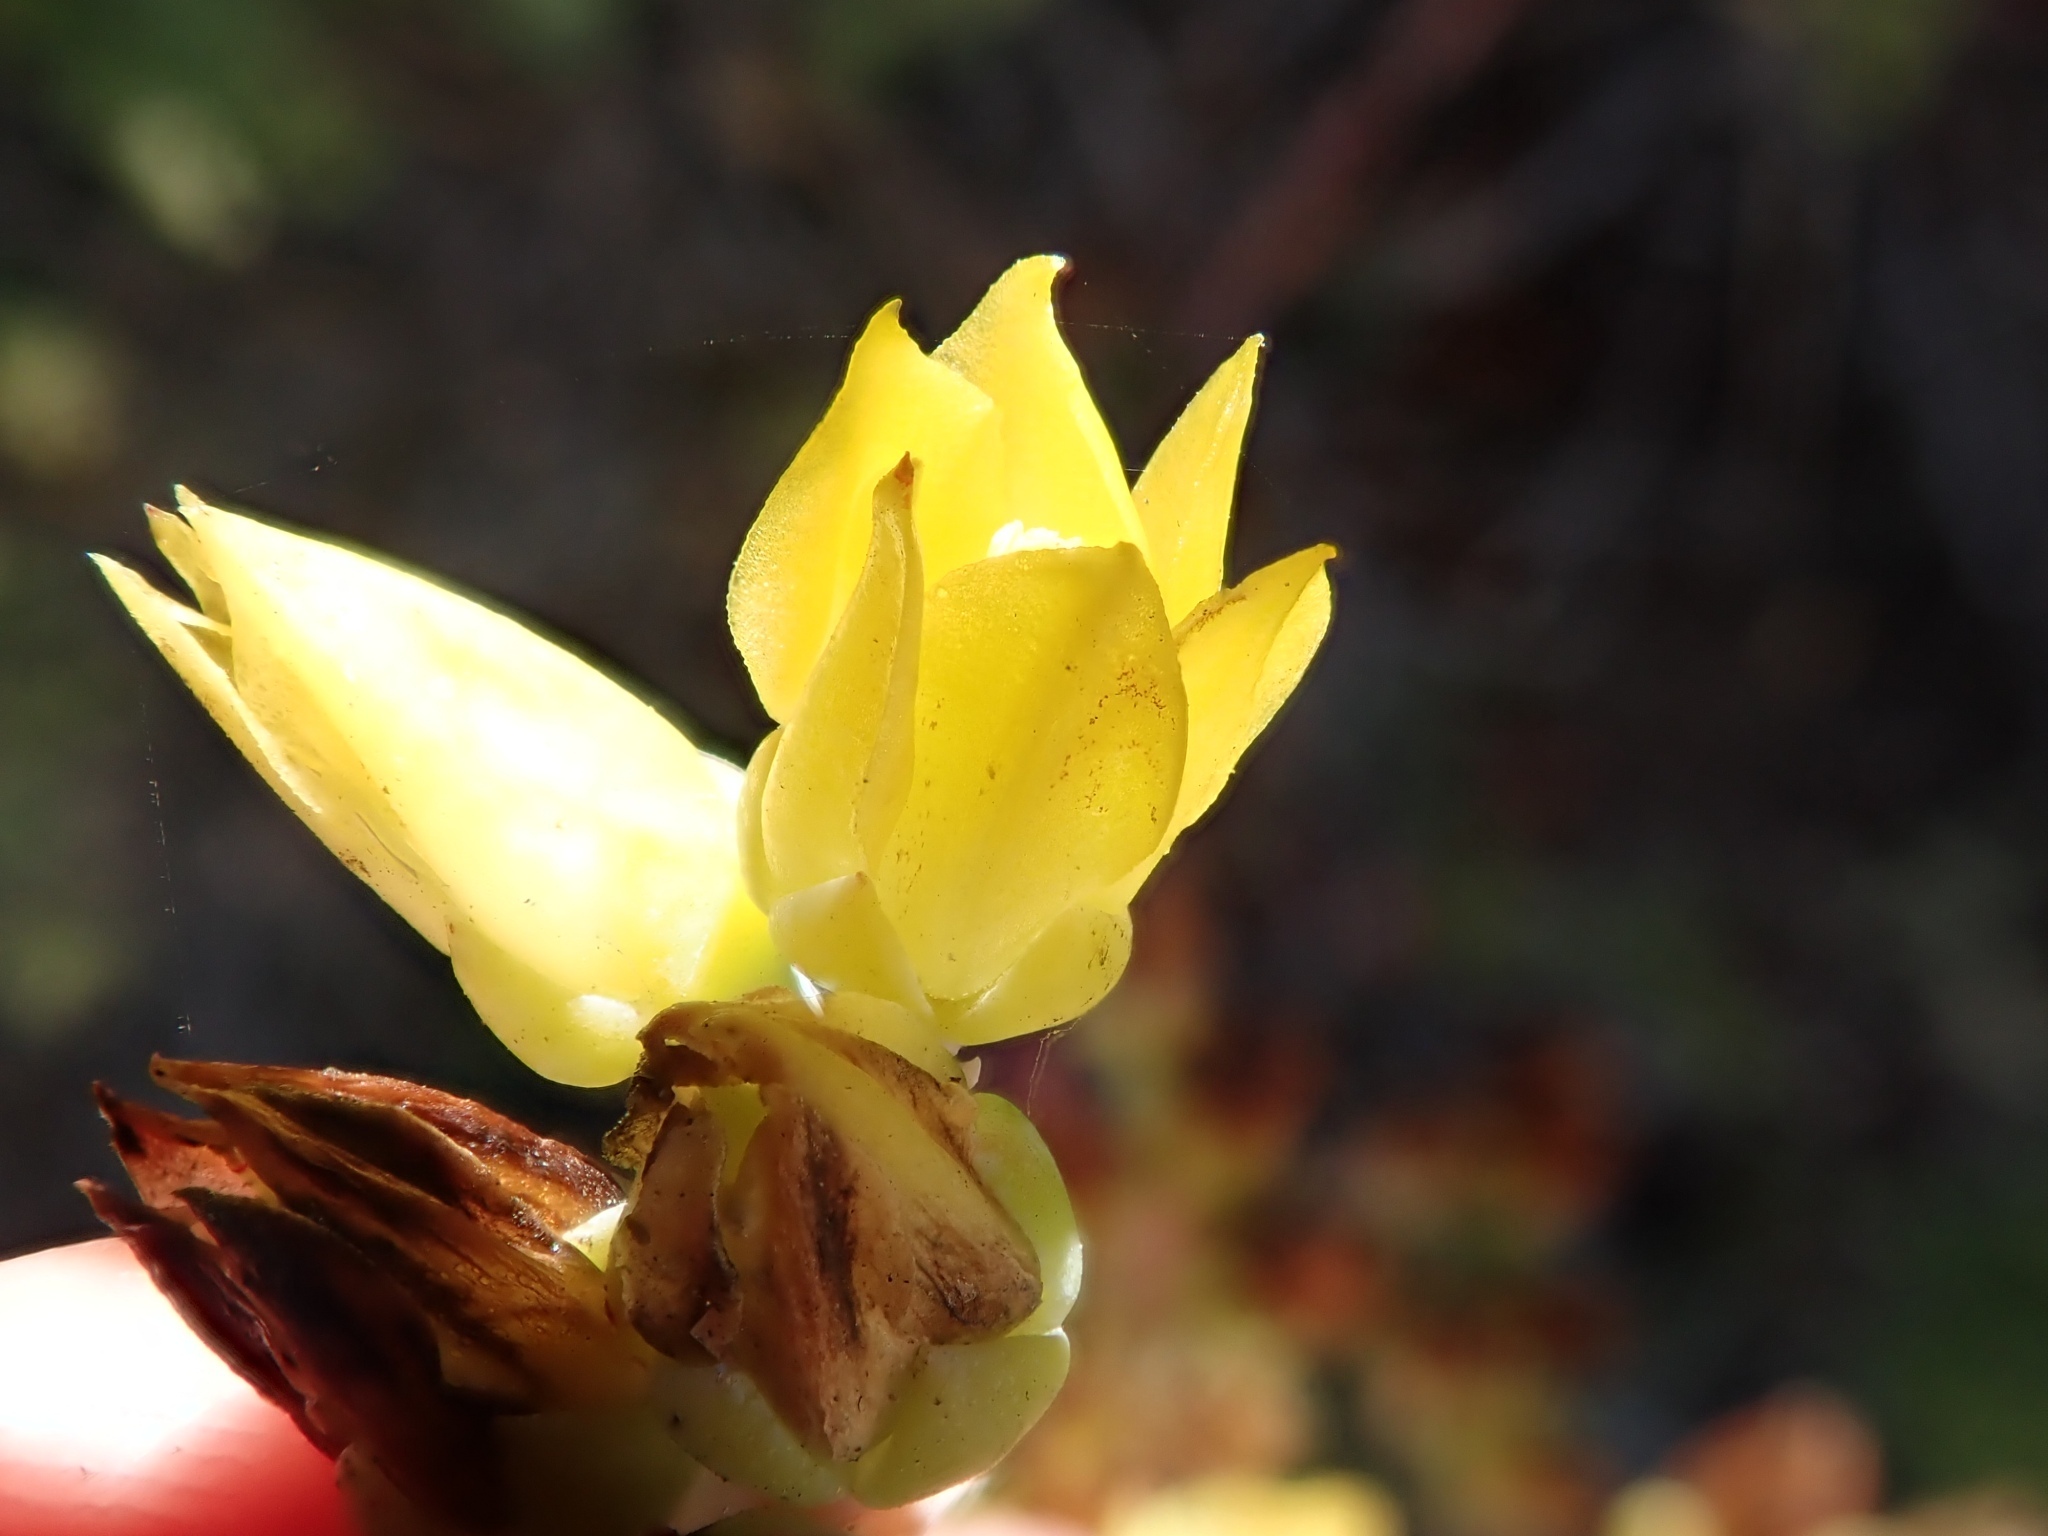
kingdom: Plantae
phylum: Tracheophyta
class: Magnoliopsida
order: Saxifragales
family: Crassulaceae
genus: Dudleya
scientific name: Dudleya caespitosa
